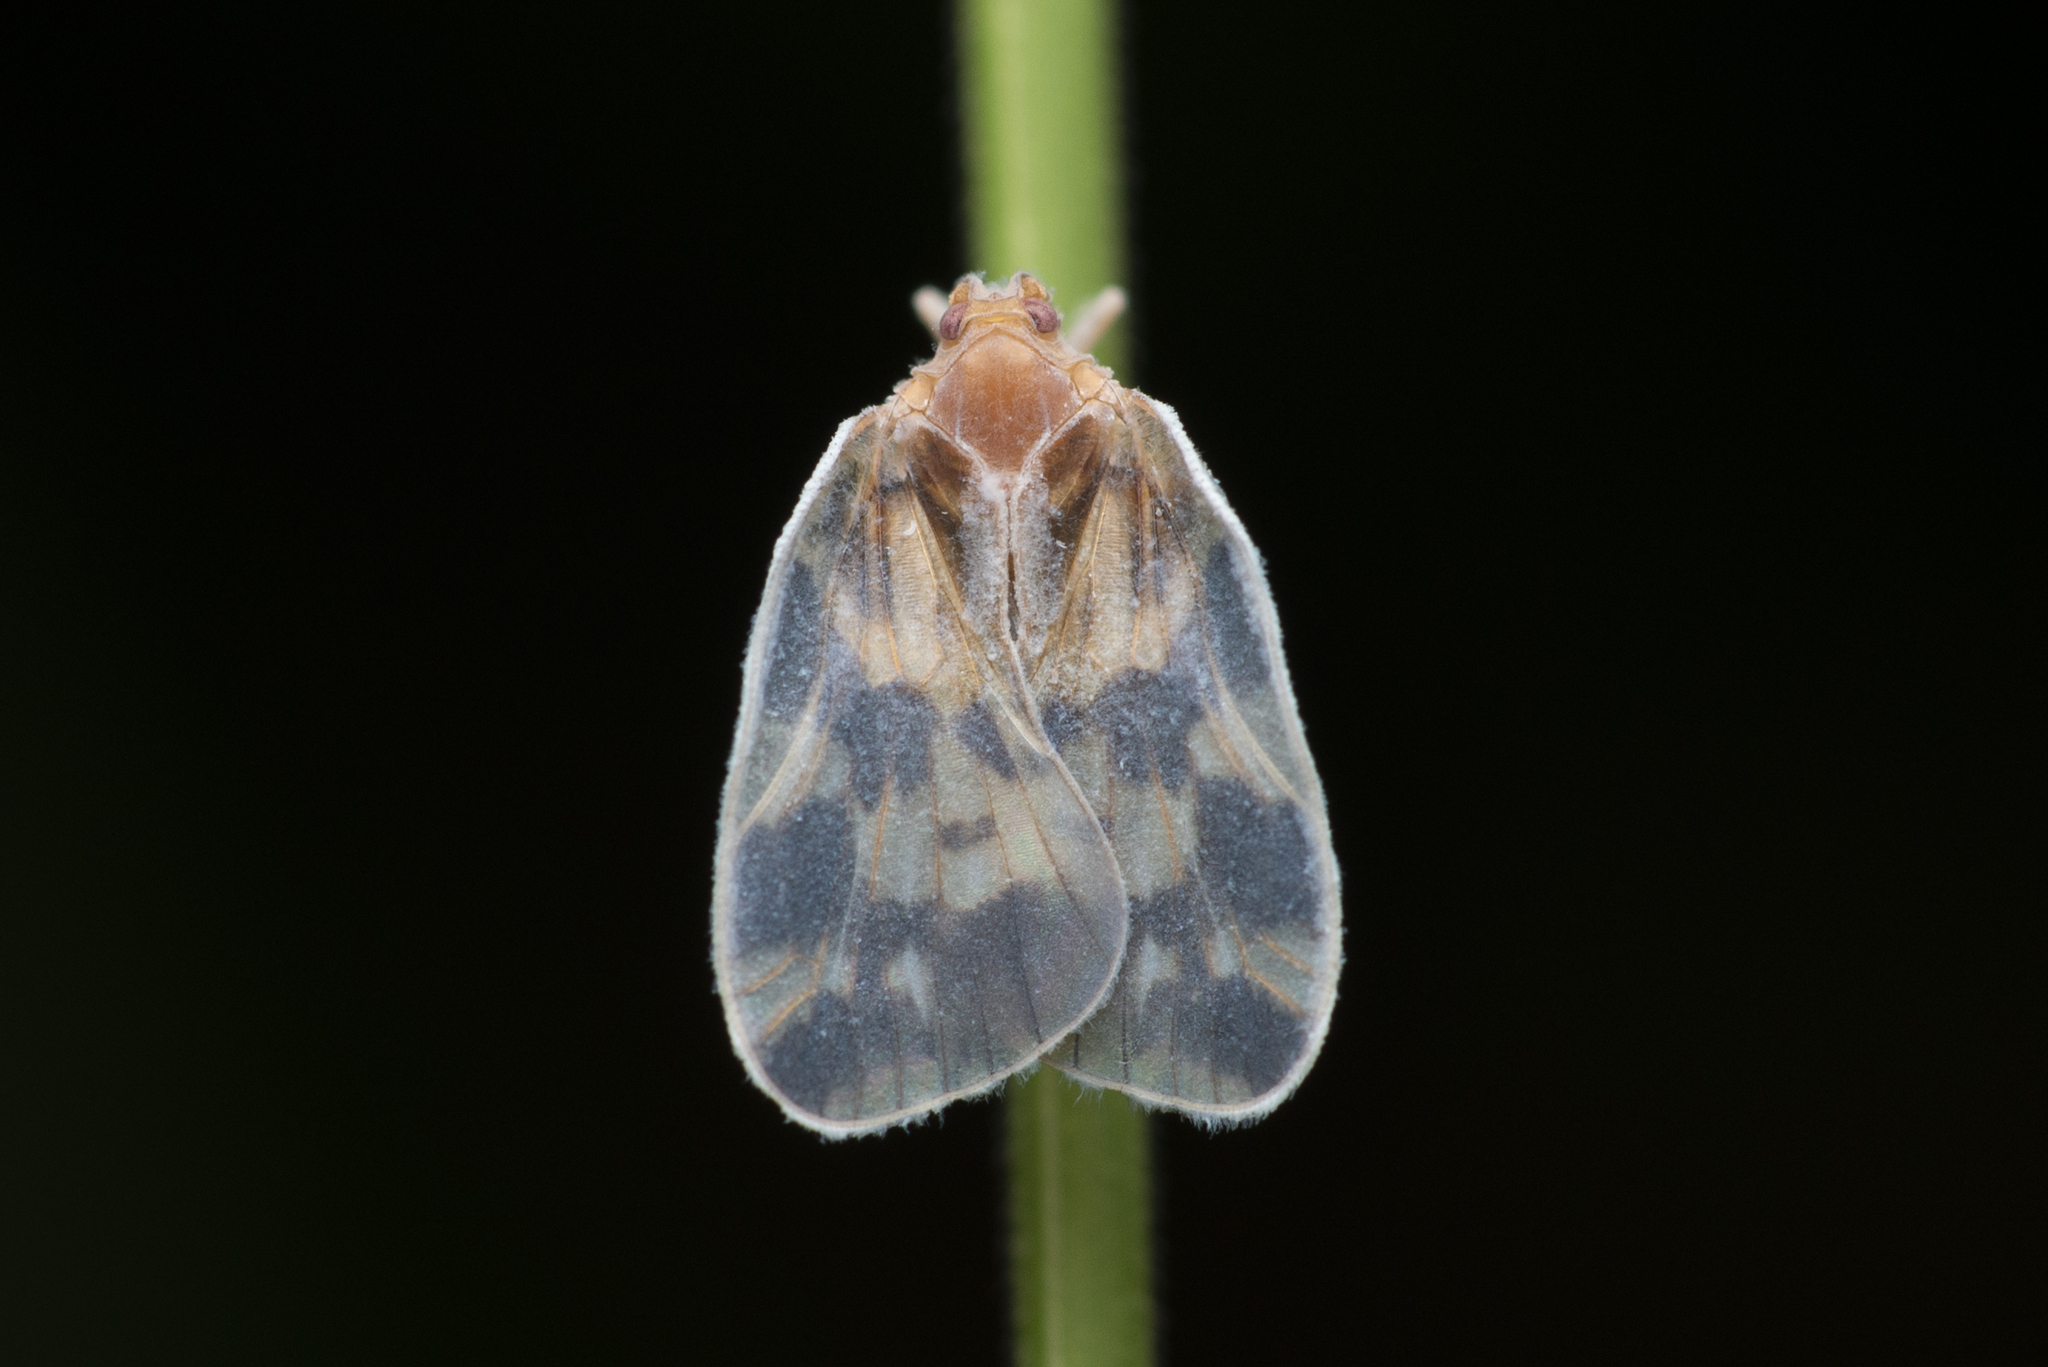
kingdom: Animalia
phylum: Arthropoda
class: Insecta
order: Hemiptera
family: Cixiidae
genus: Borysthenes
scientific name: Borysthenes emarginatus
